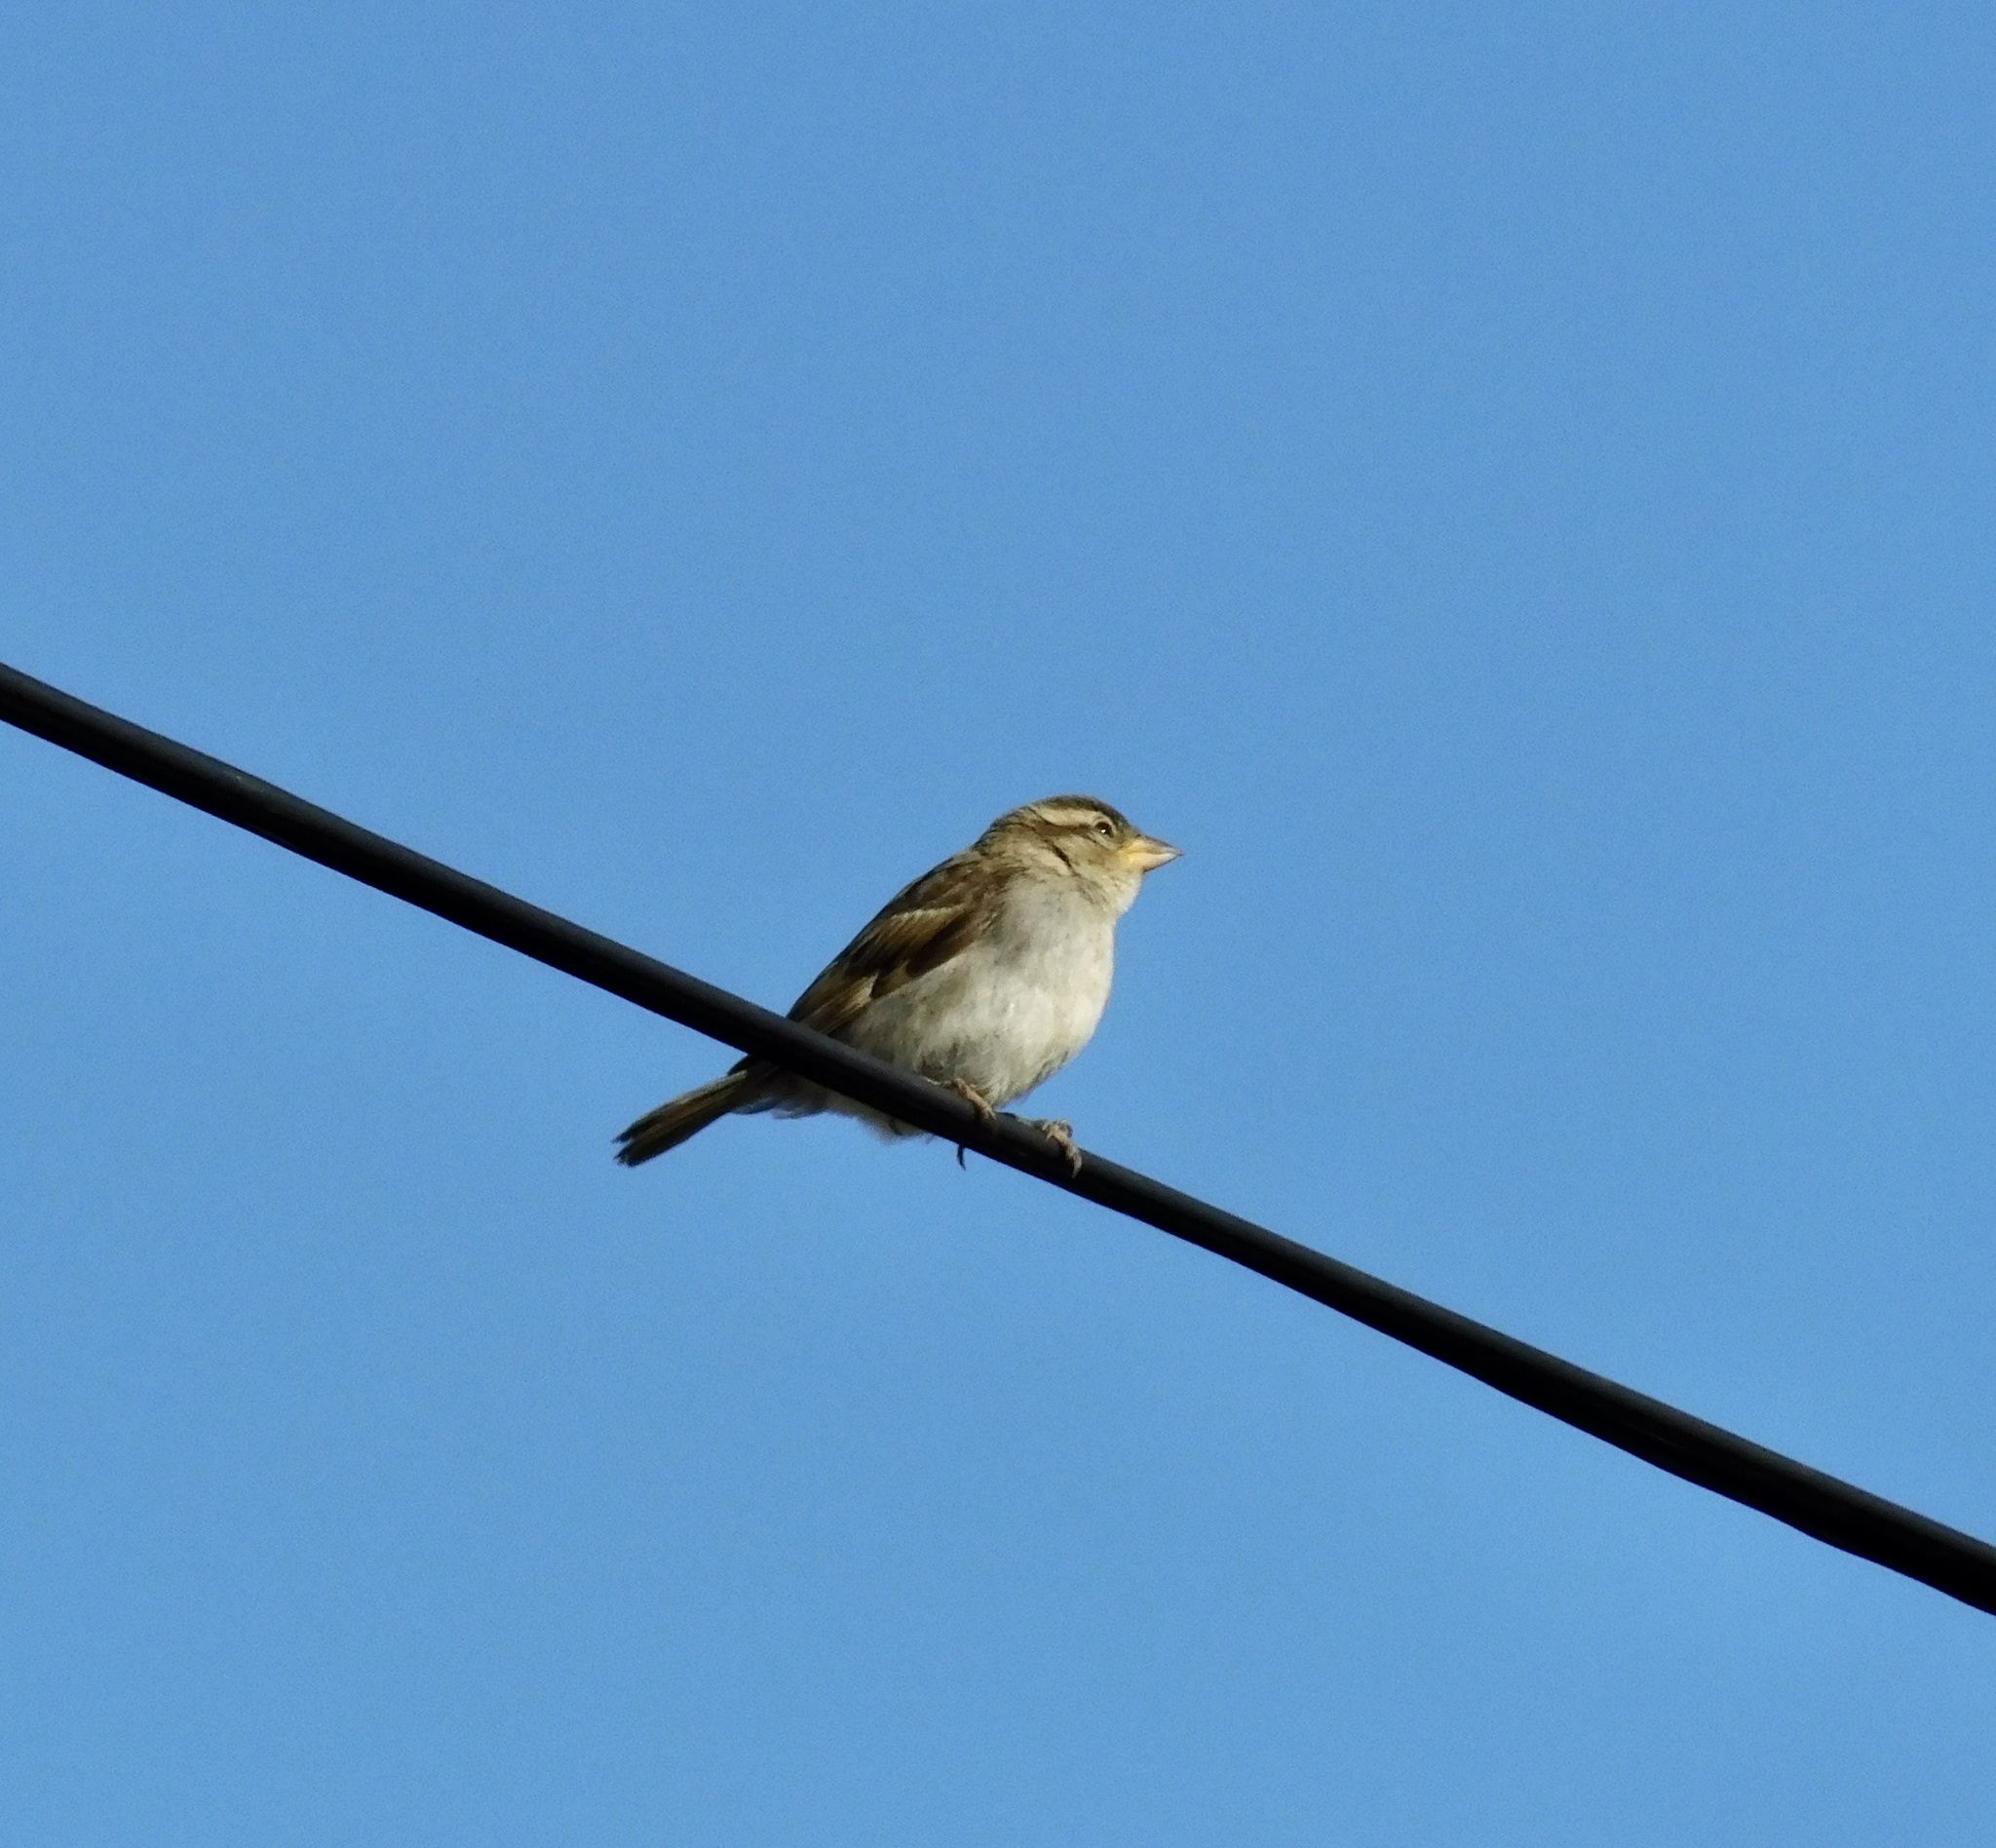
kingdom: Animalia
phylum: Chordata
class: Aves
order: Passeriformes
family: Passeridae
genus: Passer
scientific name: Passer domesticus
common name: House sparrow
